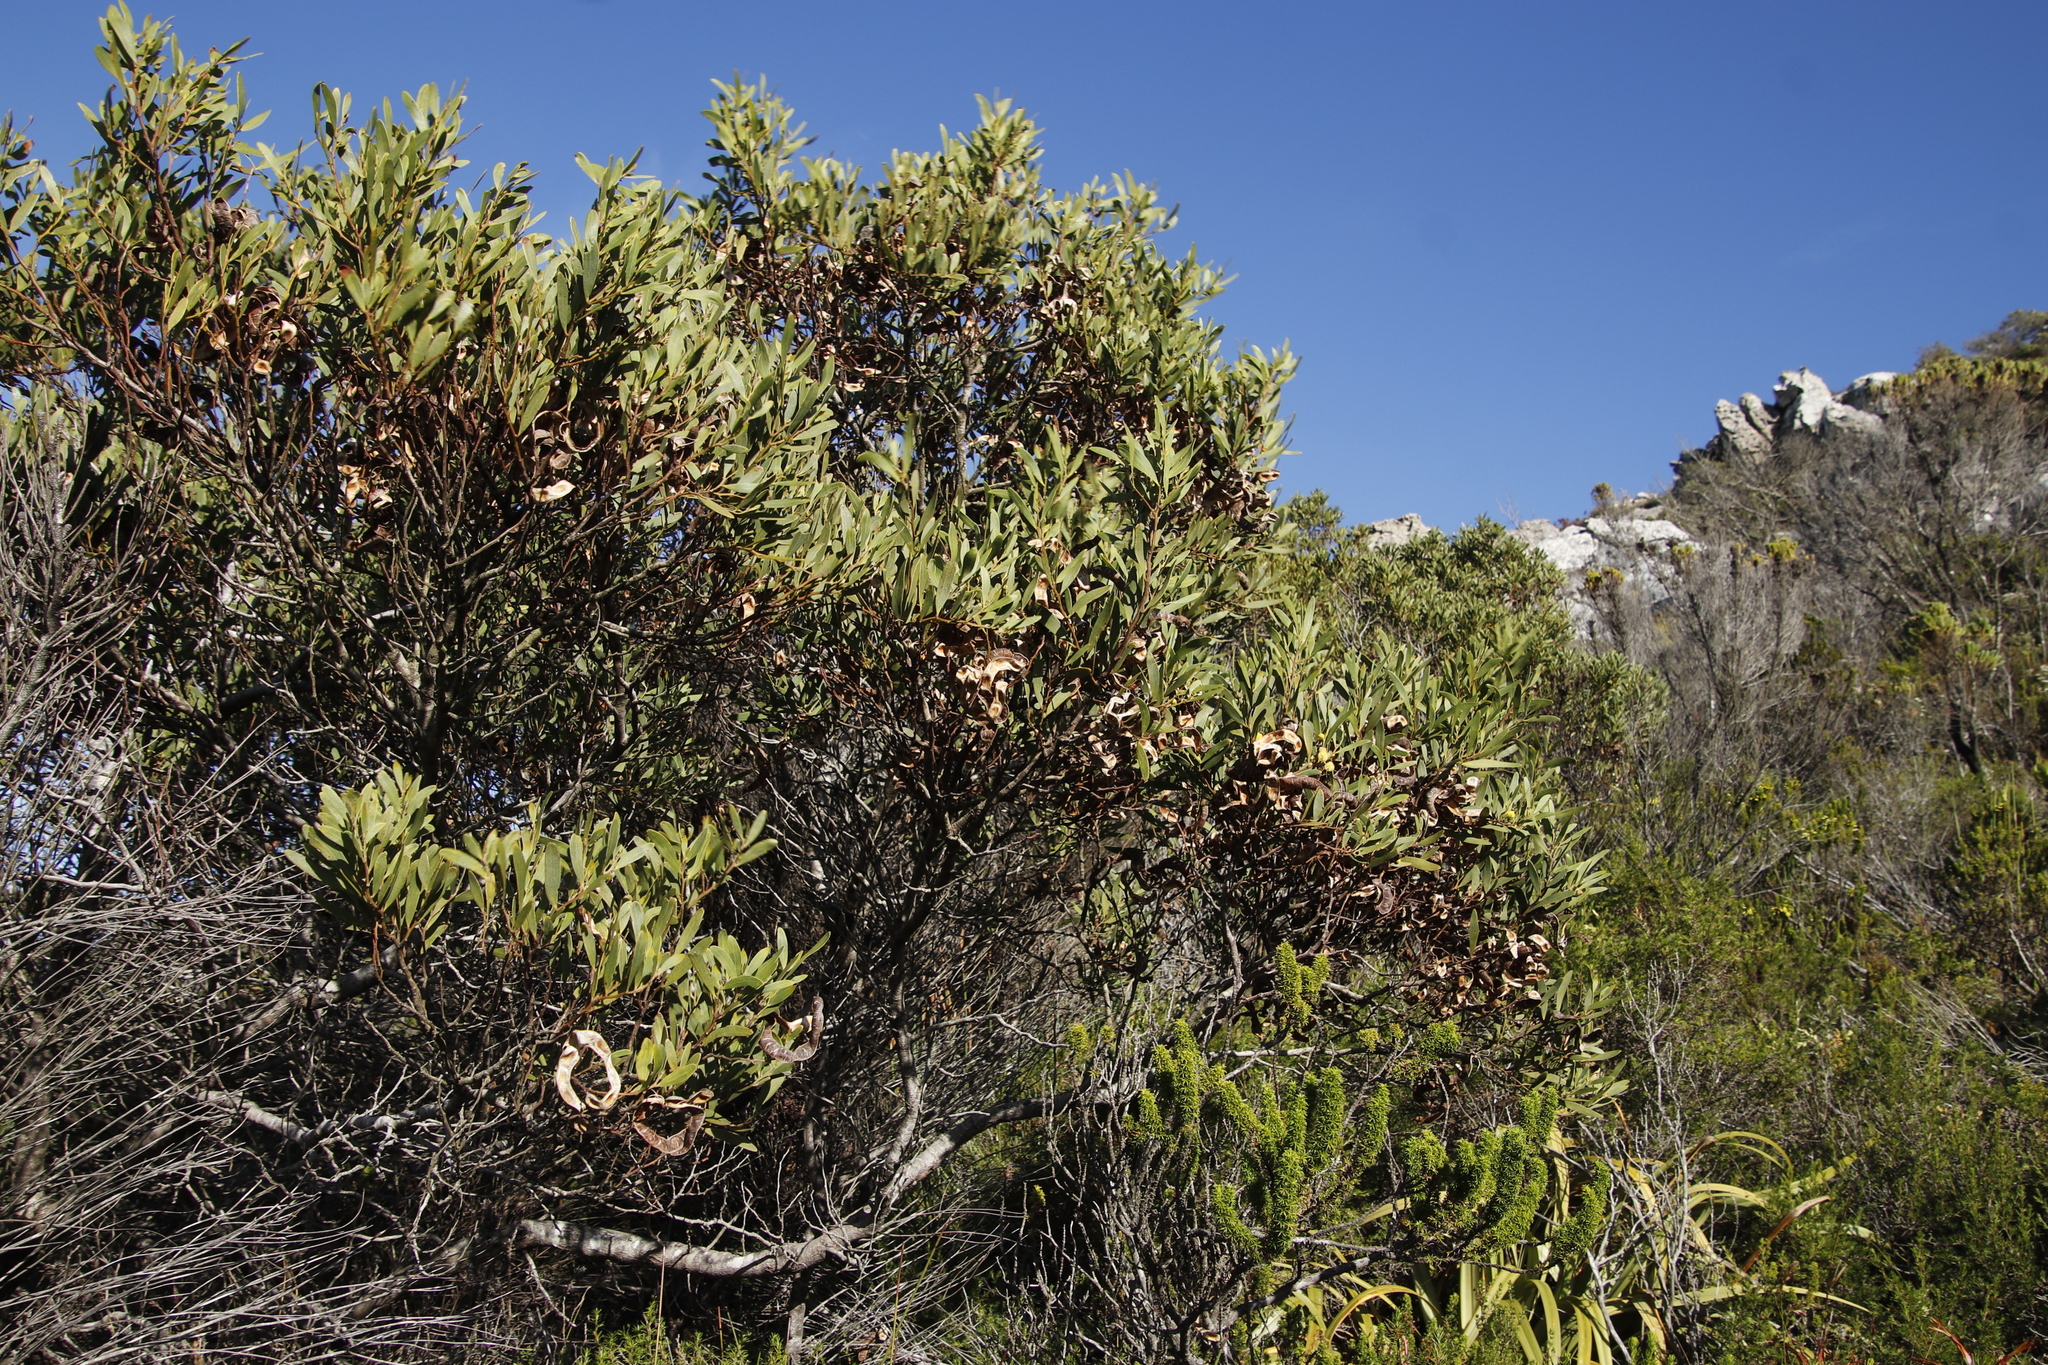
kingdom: Plantae
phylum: Tracheophyta
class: Magnoliopsida
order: Fabales
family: Fabaceae
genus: Acacia
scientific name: Acacia cyclops
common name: Coastal wattle
